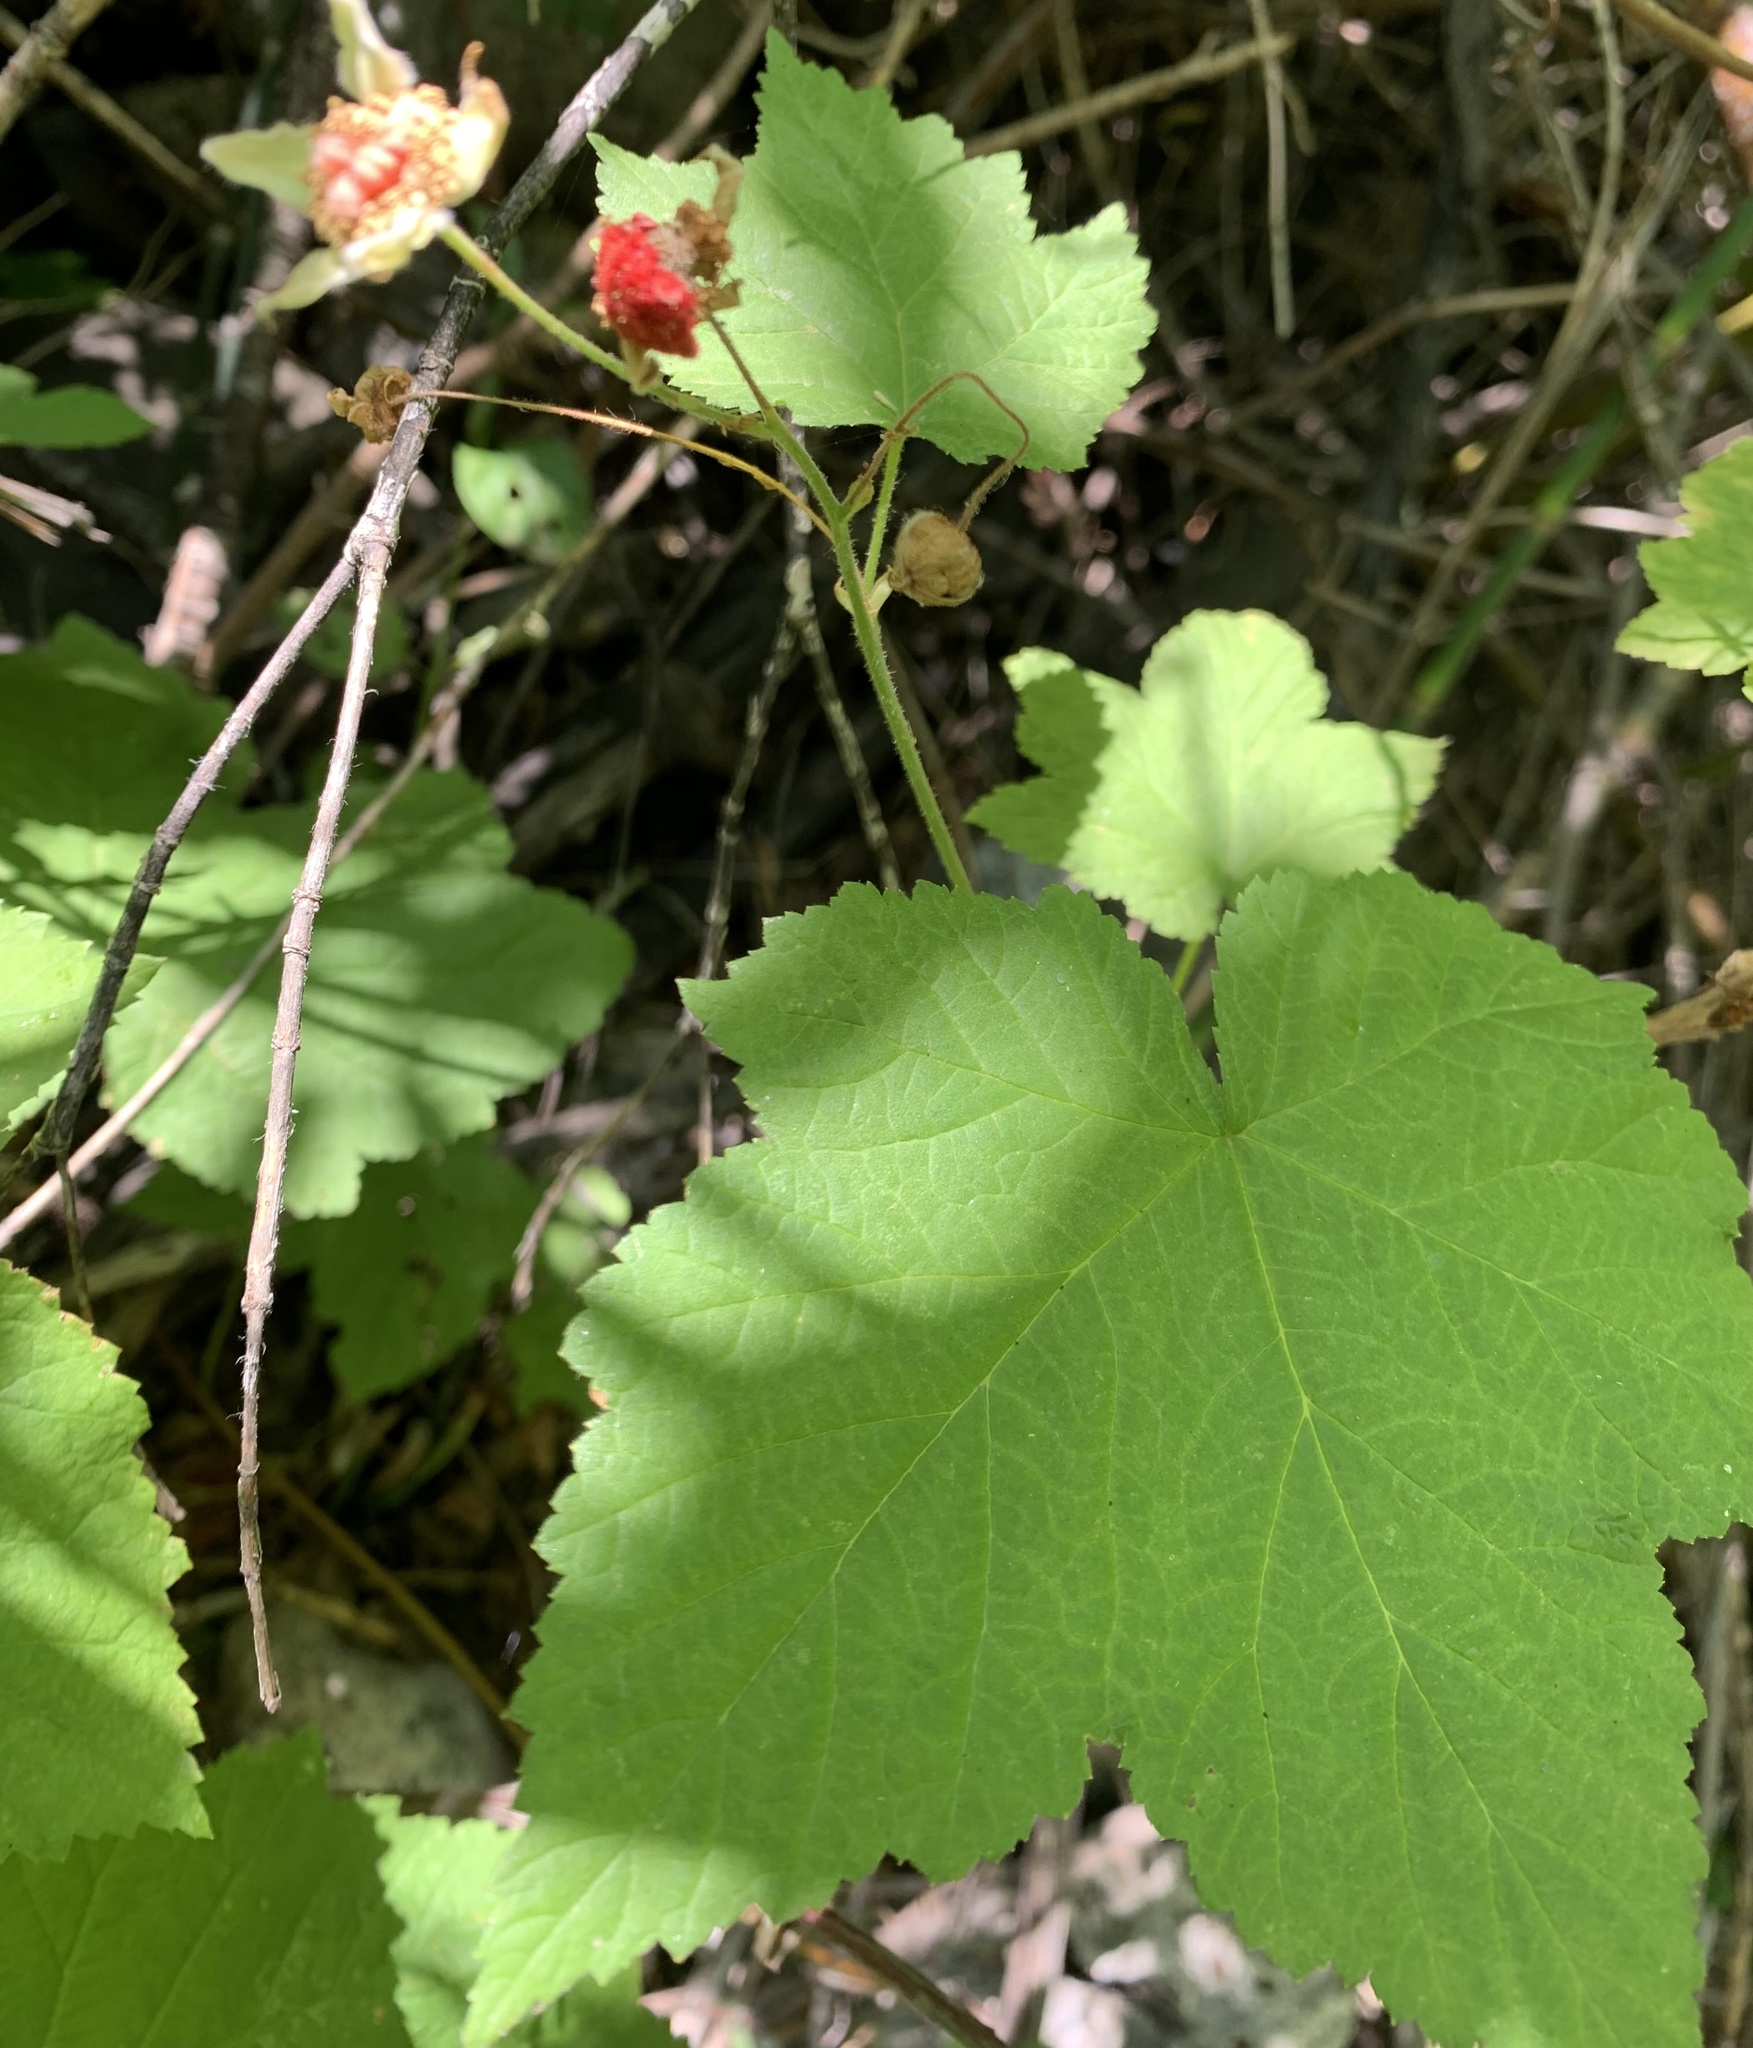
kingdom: Plantae
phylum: Tracheophyta
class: Magnoliopsida
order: Rosales
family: Rosaceae
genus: Rubus
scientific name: Rubus parviflorus
